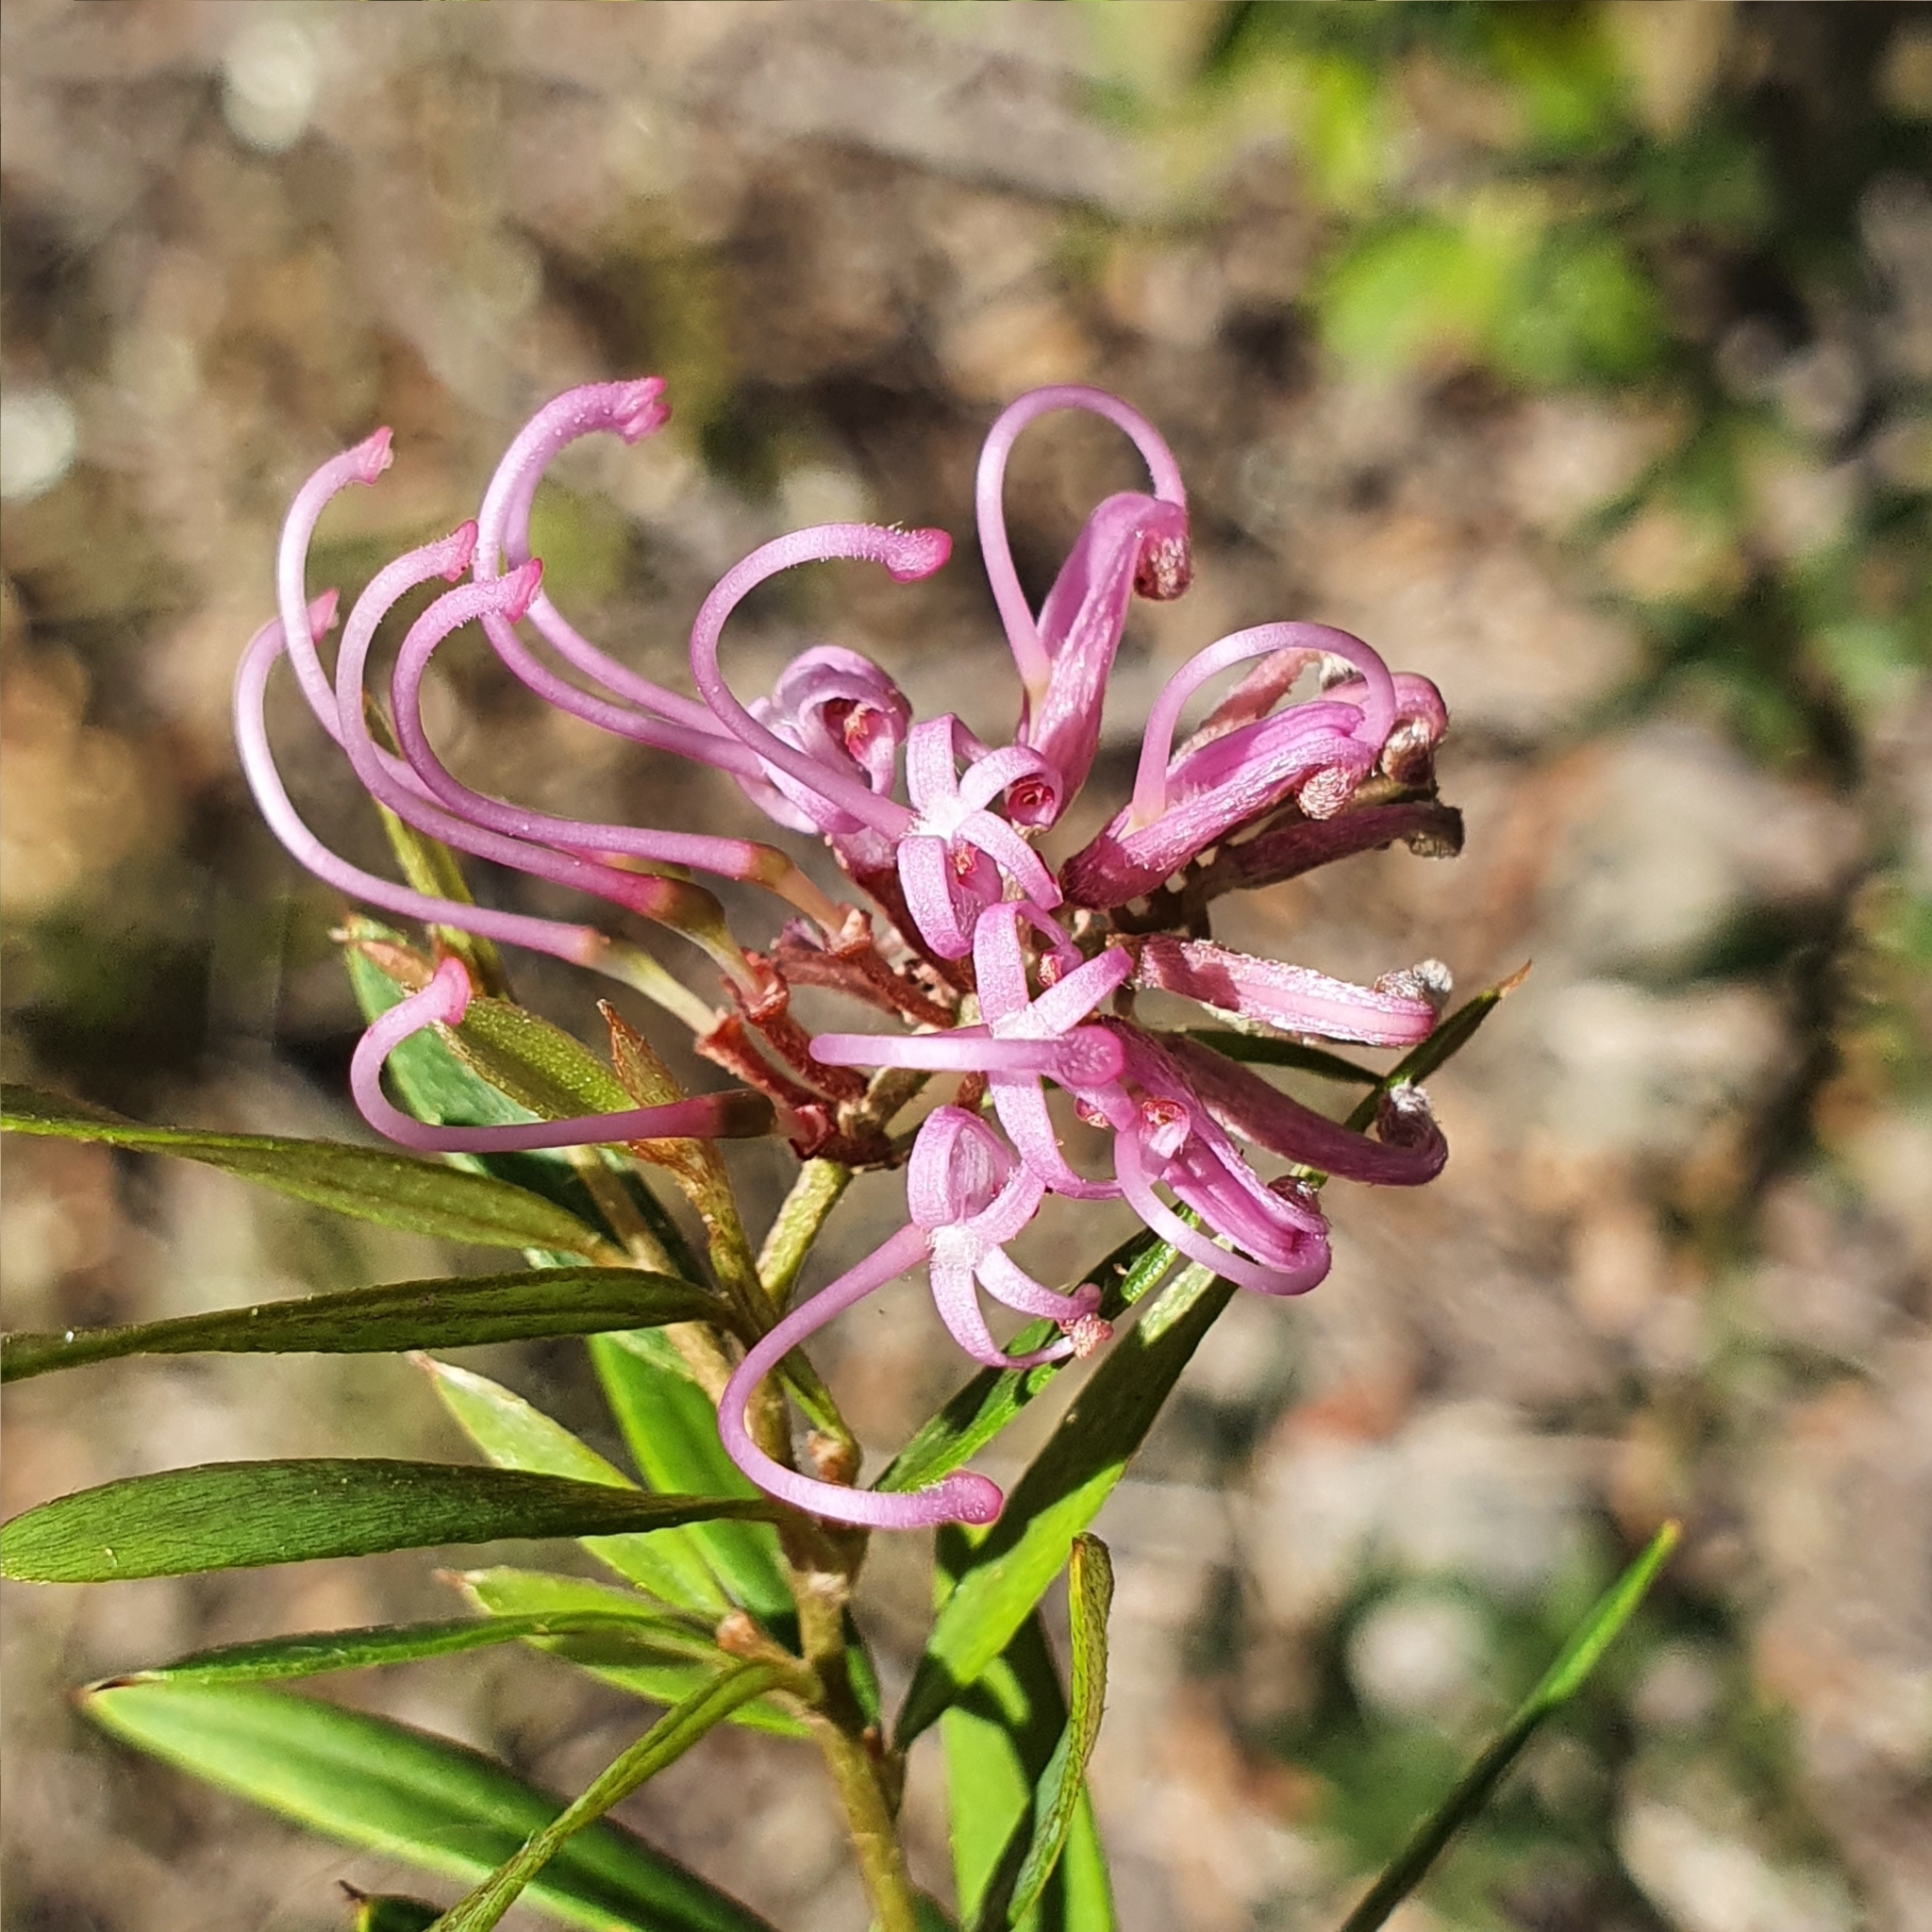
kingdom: Plantae
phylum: Tracheophyta
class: Magnoliopsida
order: Proteales
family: Proteaceae
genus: Grevillea
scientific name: Grevillea sericea
